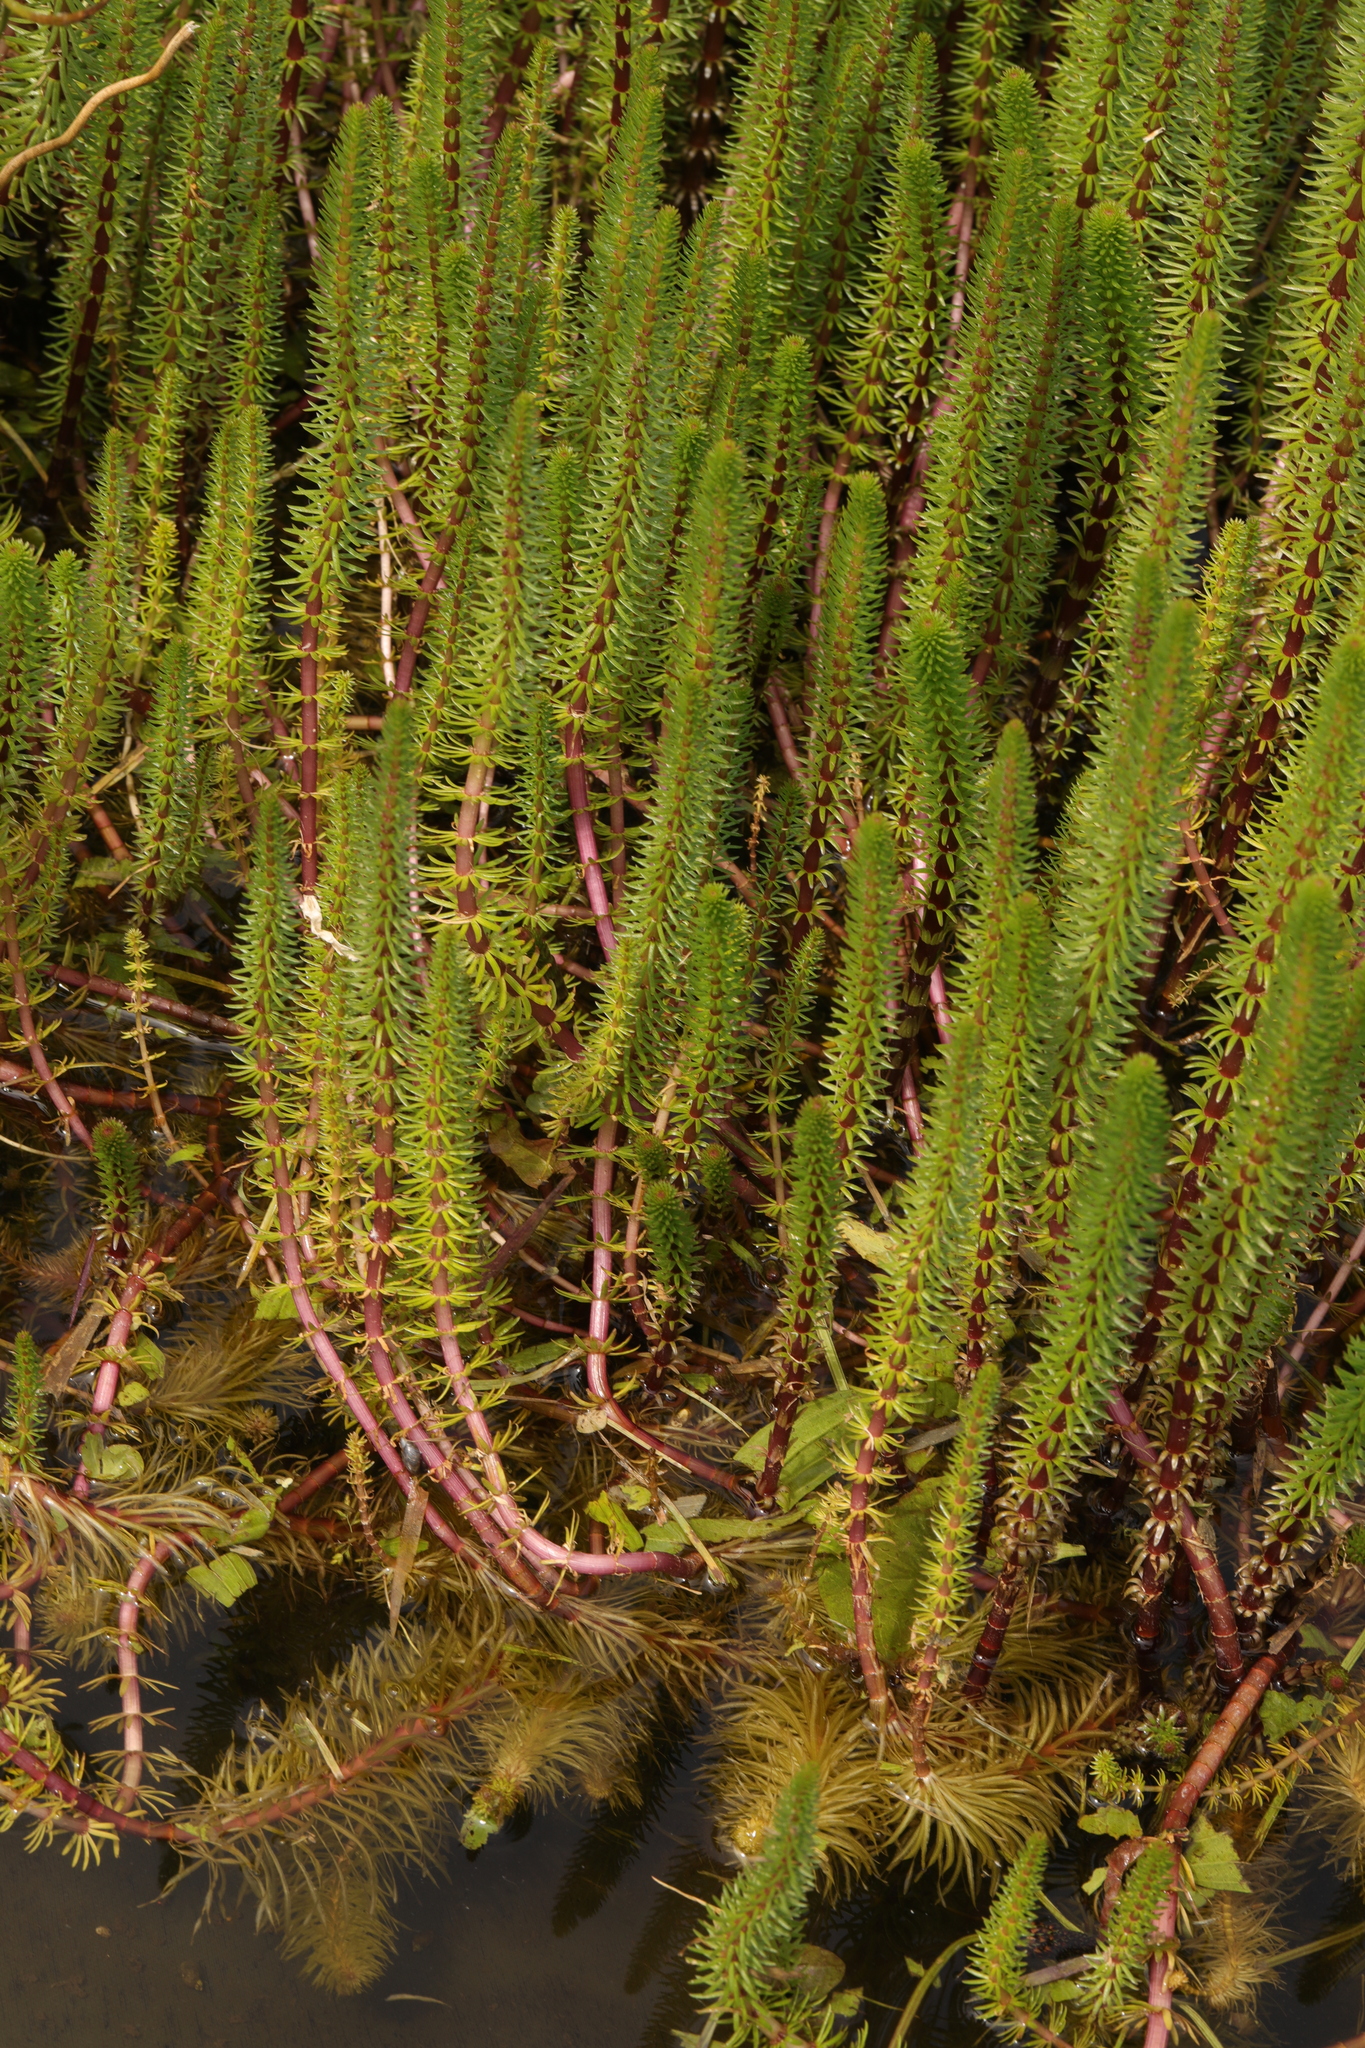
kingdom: Plantae
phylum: Tracheophyta
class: Magnoliopsida
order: Lamiales
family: Plantaginaceae
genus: Hippuris
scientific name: Hippuris vulgaris
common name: Mare's-tail
